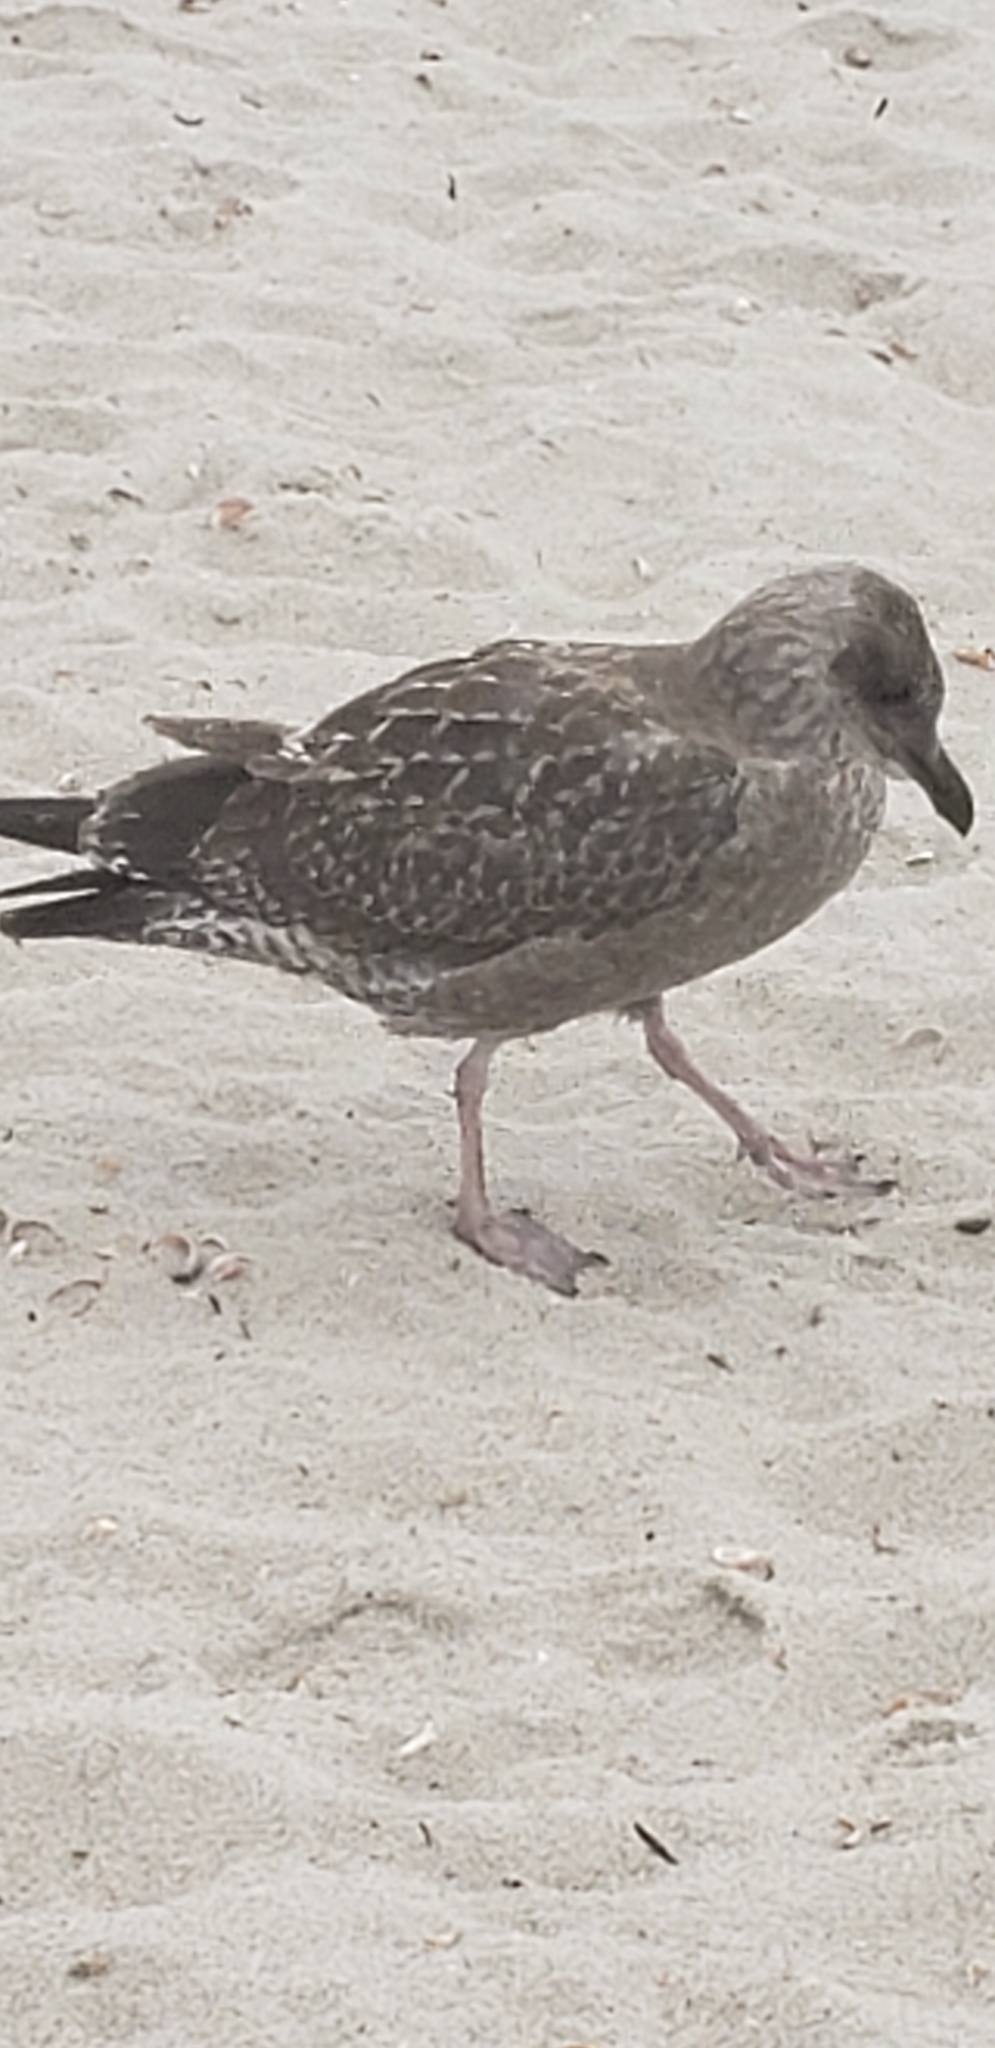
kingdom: Animalia
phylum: Chordata
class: Aves
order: Charadriiformes
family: Laridae
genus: Larus
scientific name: Larus argentatus
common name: Herring gull
